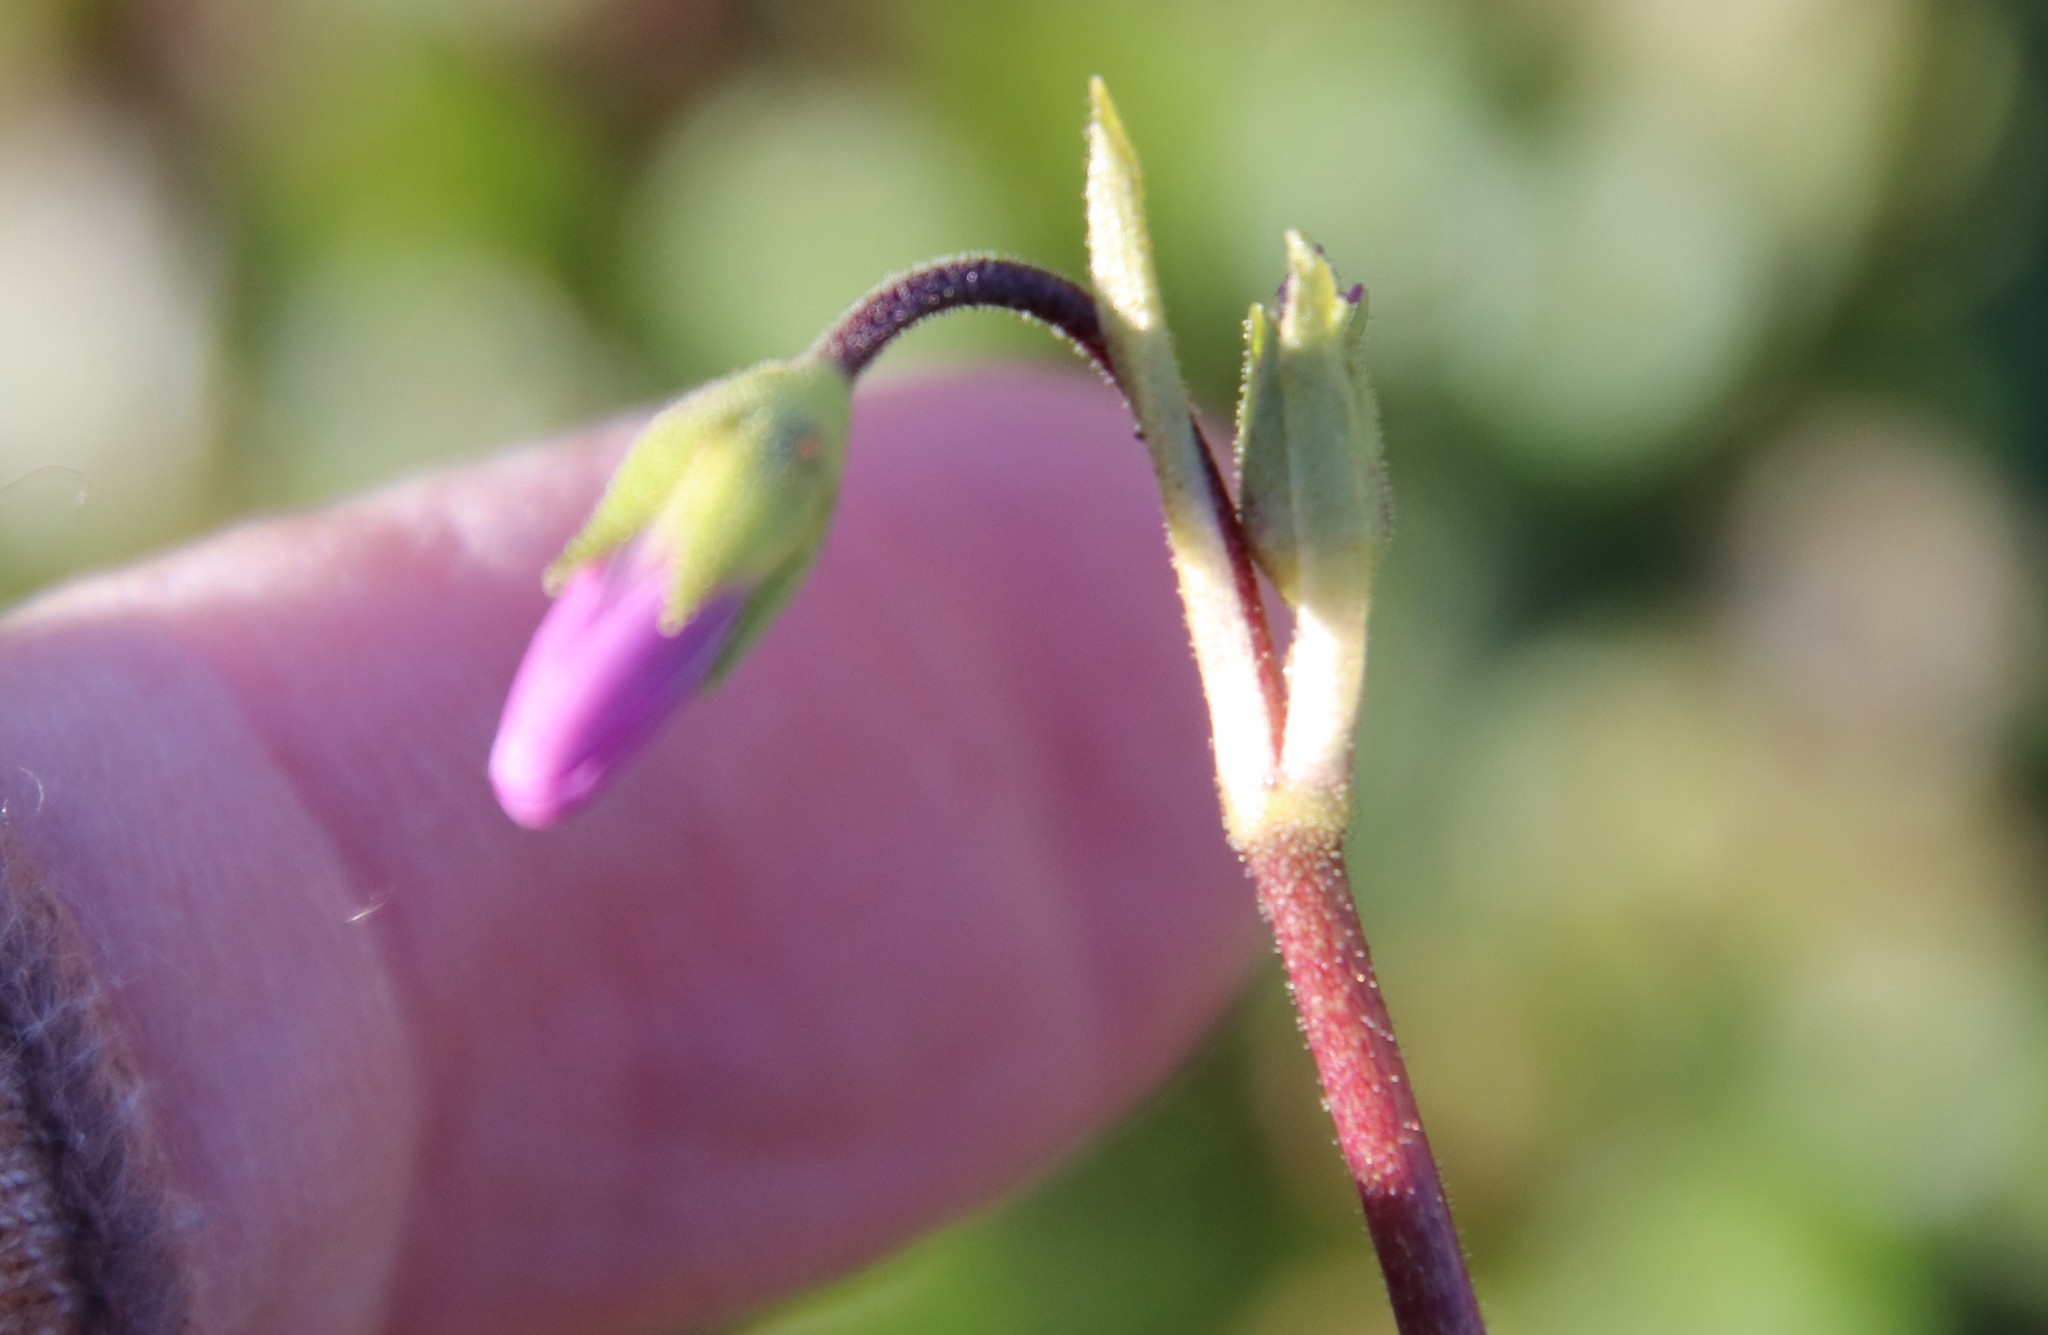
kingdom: Plantae
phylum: Tracheophyta
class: Magnoliopsida
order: Ericales
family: Primulaceae
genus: Dodecatheon
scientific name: Dodecatheon clevelandii
